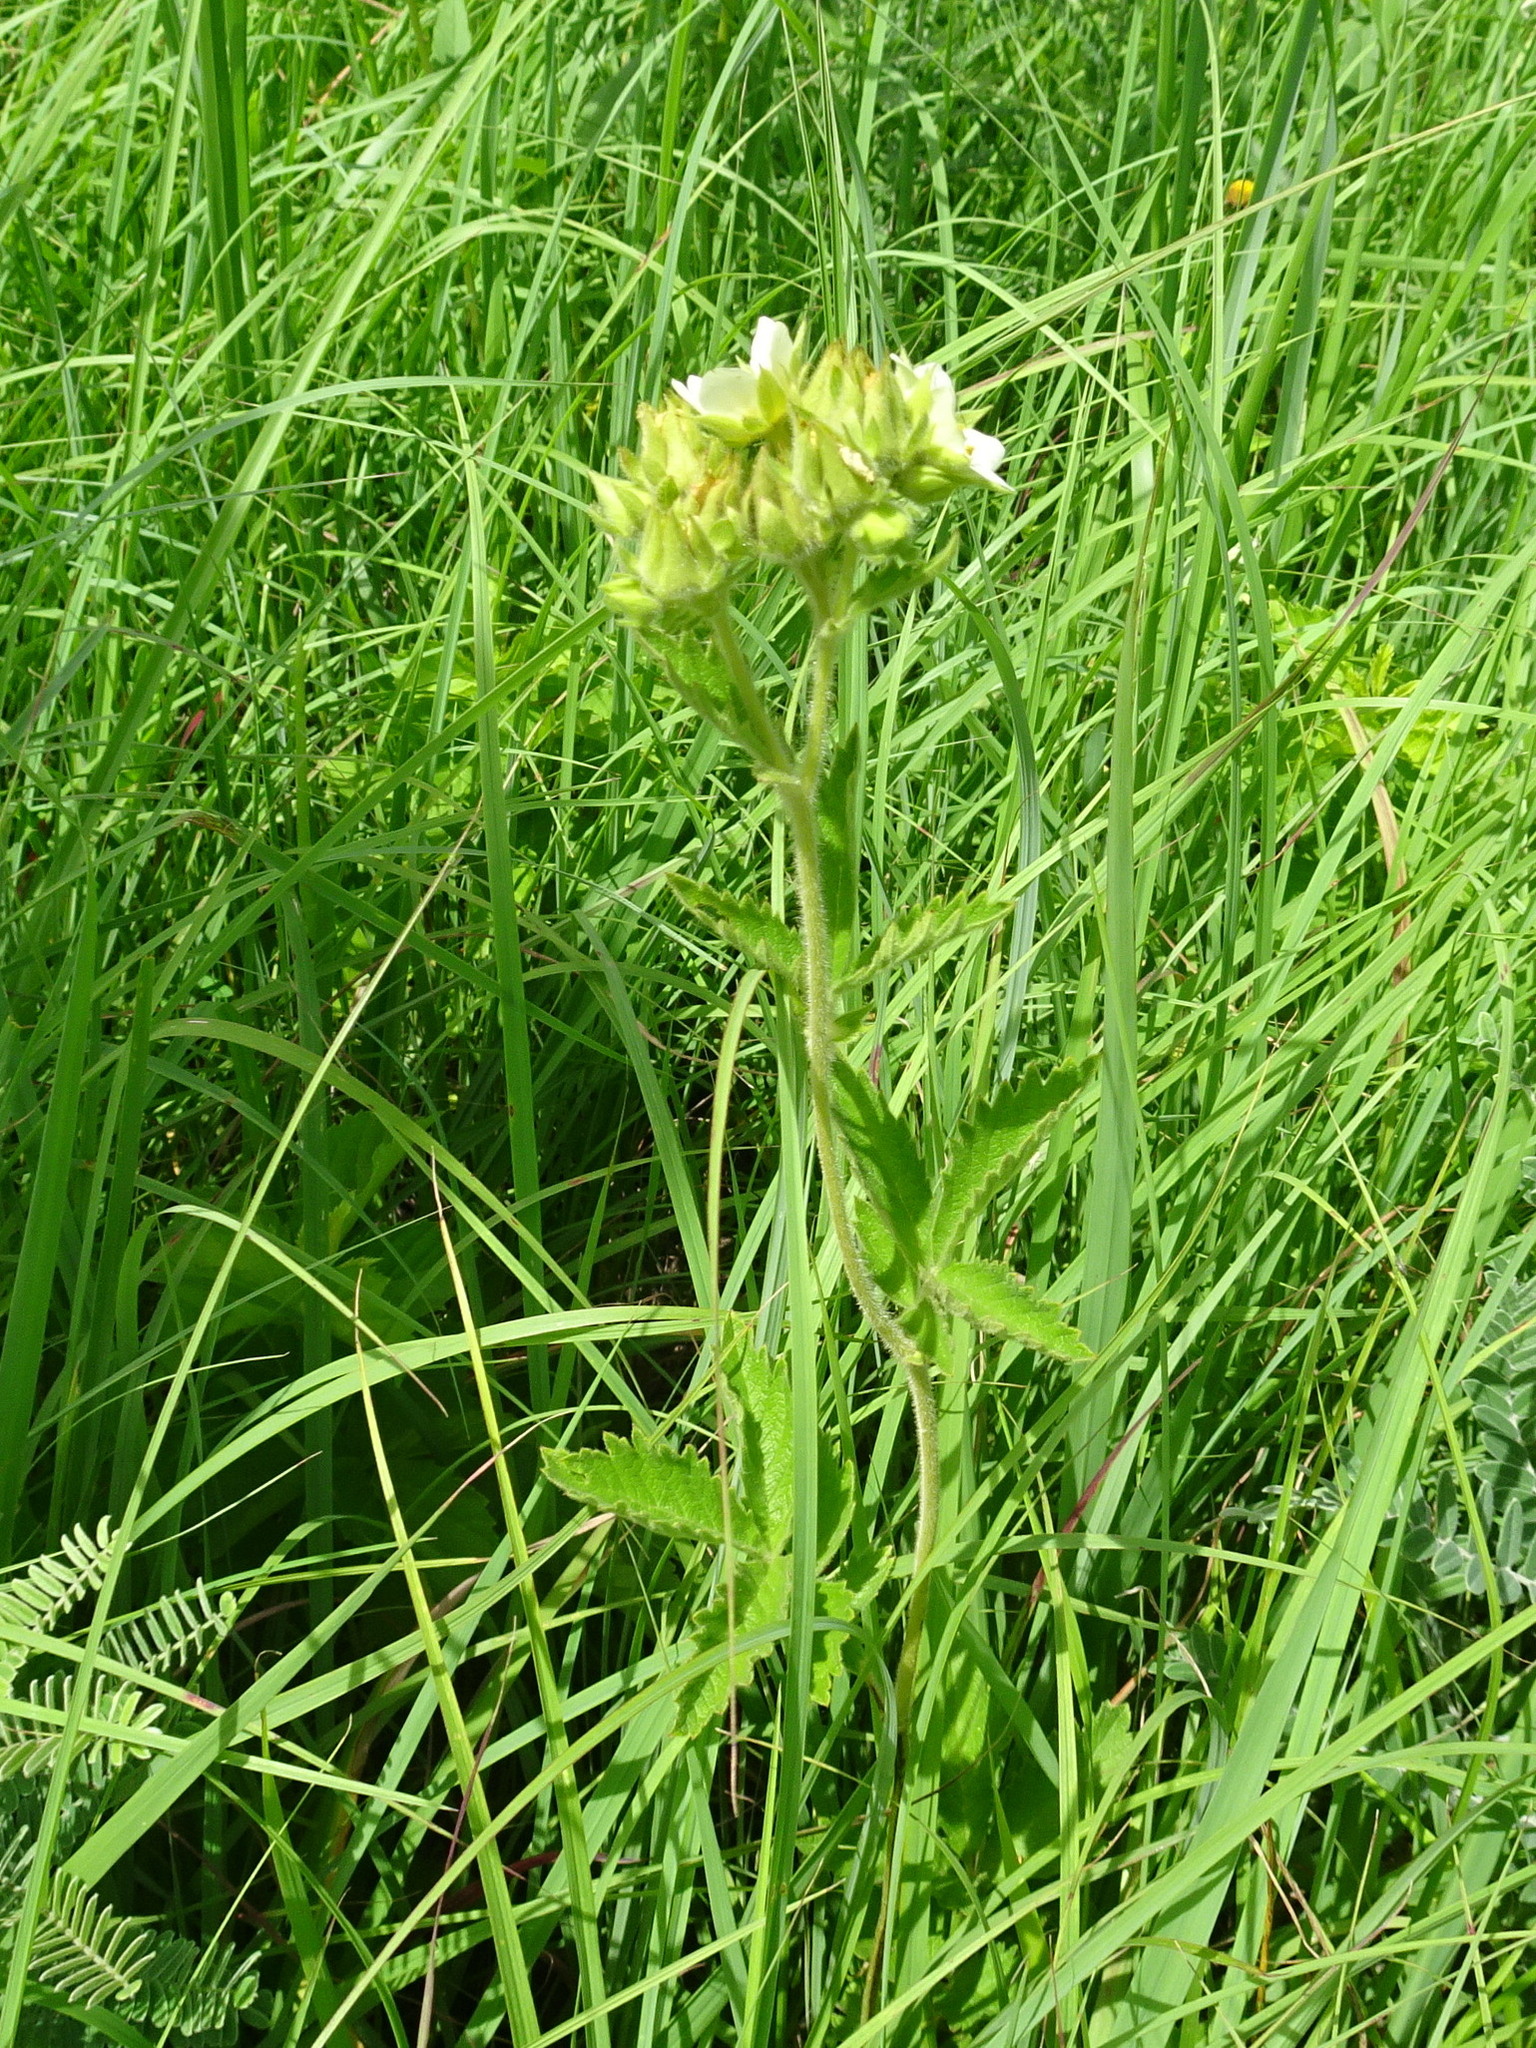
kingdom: Plantae
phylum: Tracheophyta
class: Magnoliopsida
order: Rosales
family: Rosaceae
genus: Drymocallis
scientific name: Drymocallis arguta
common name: Tall cinquefoil
